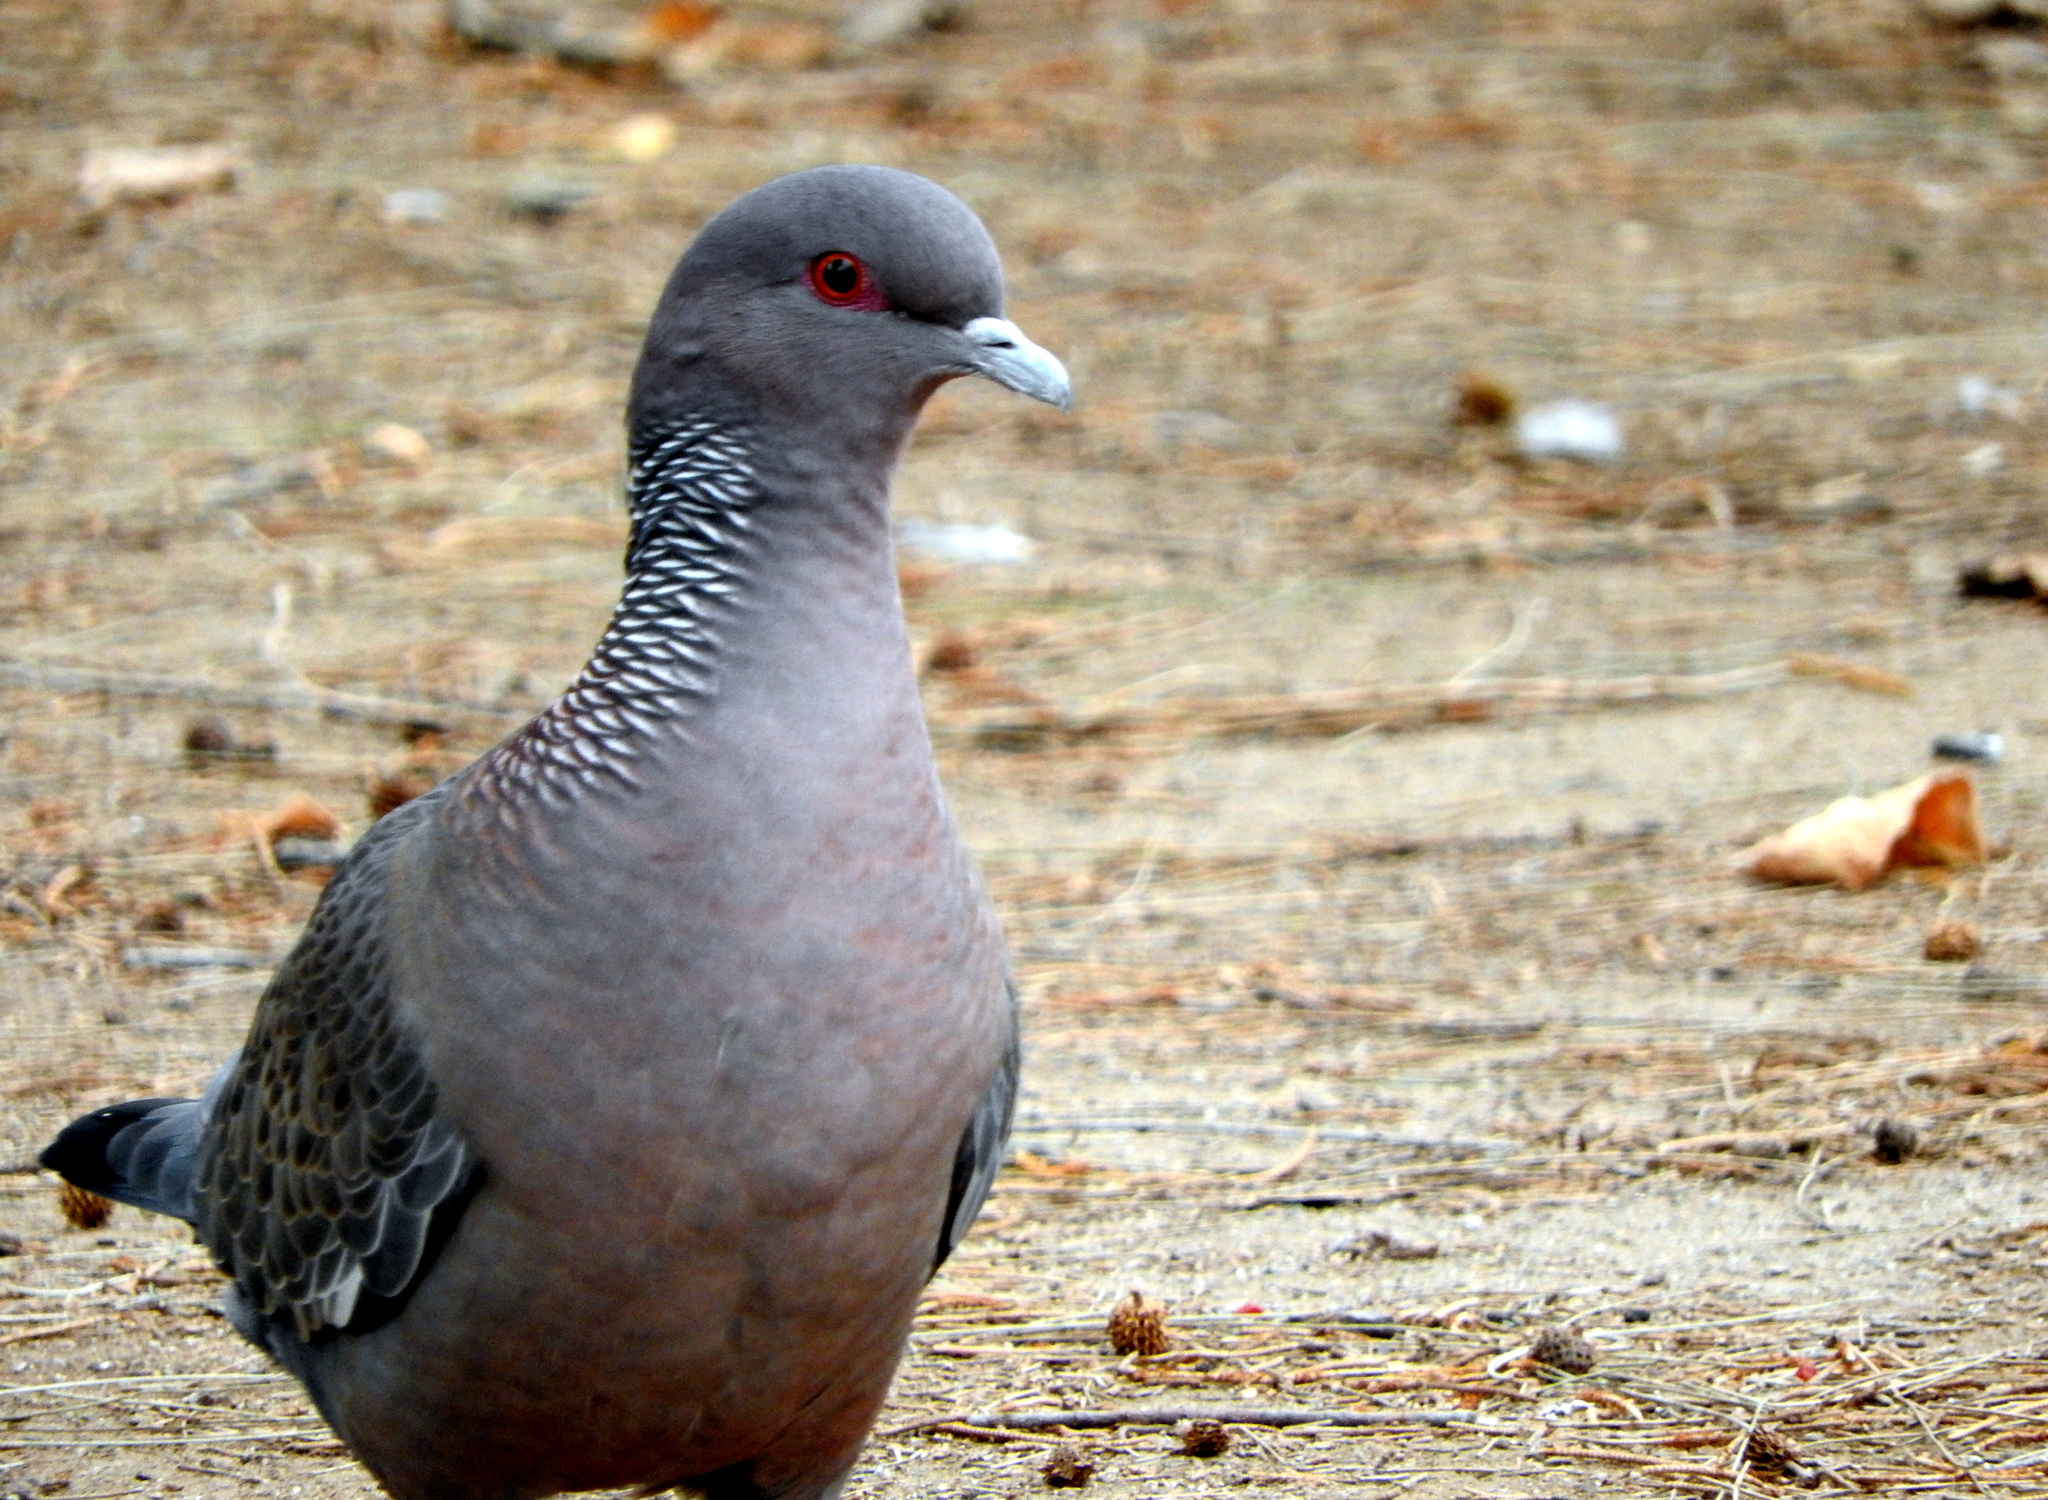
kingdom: Animalia
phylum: Chordata
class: Aves
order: Columbiformes
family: Columbidae
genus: Patagioenas
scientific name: Patagioenas picazuro
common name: Picazuro pigeon
